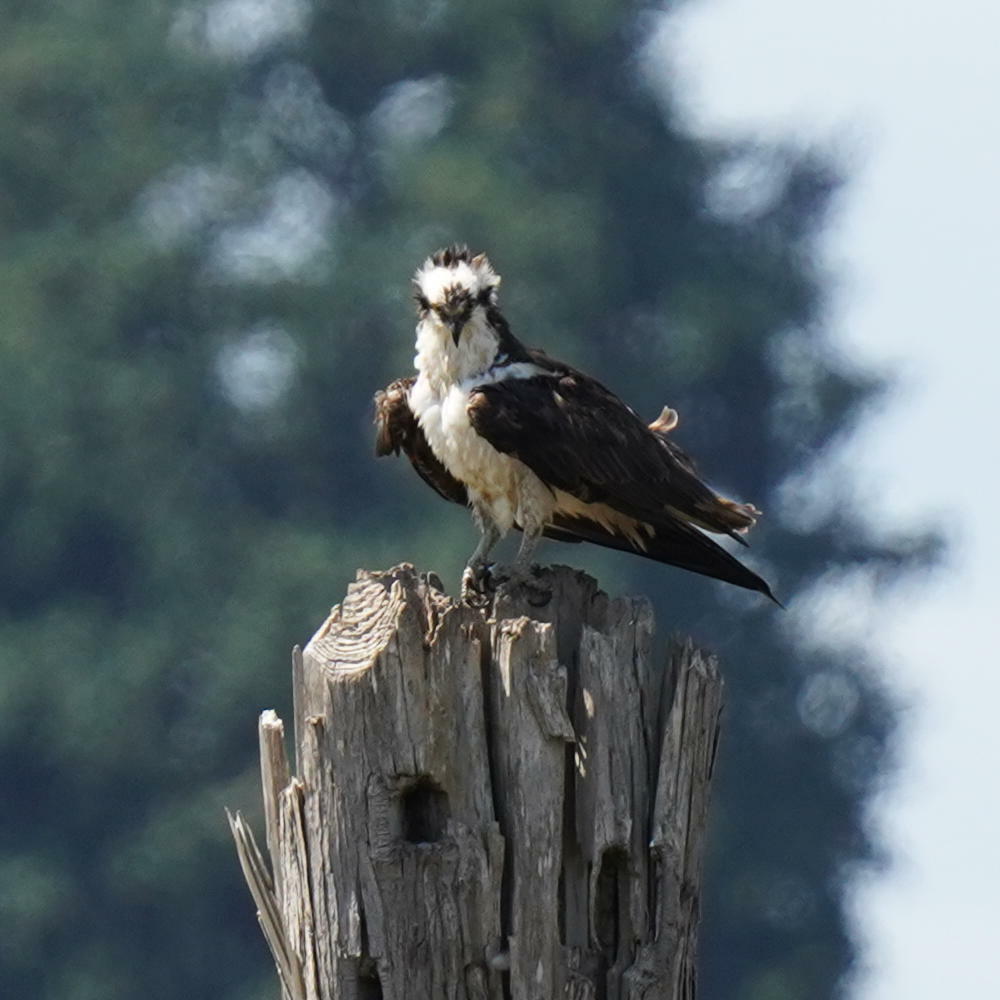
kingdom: Animalia
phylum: Chordata
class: Aves
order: Accipitriformes
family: Pandionidae
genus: Pandion
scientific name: Pandion haliaetus
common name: Osprey
